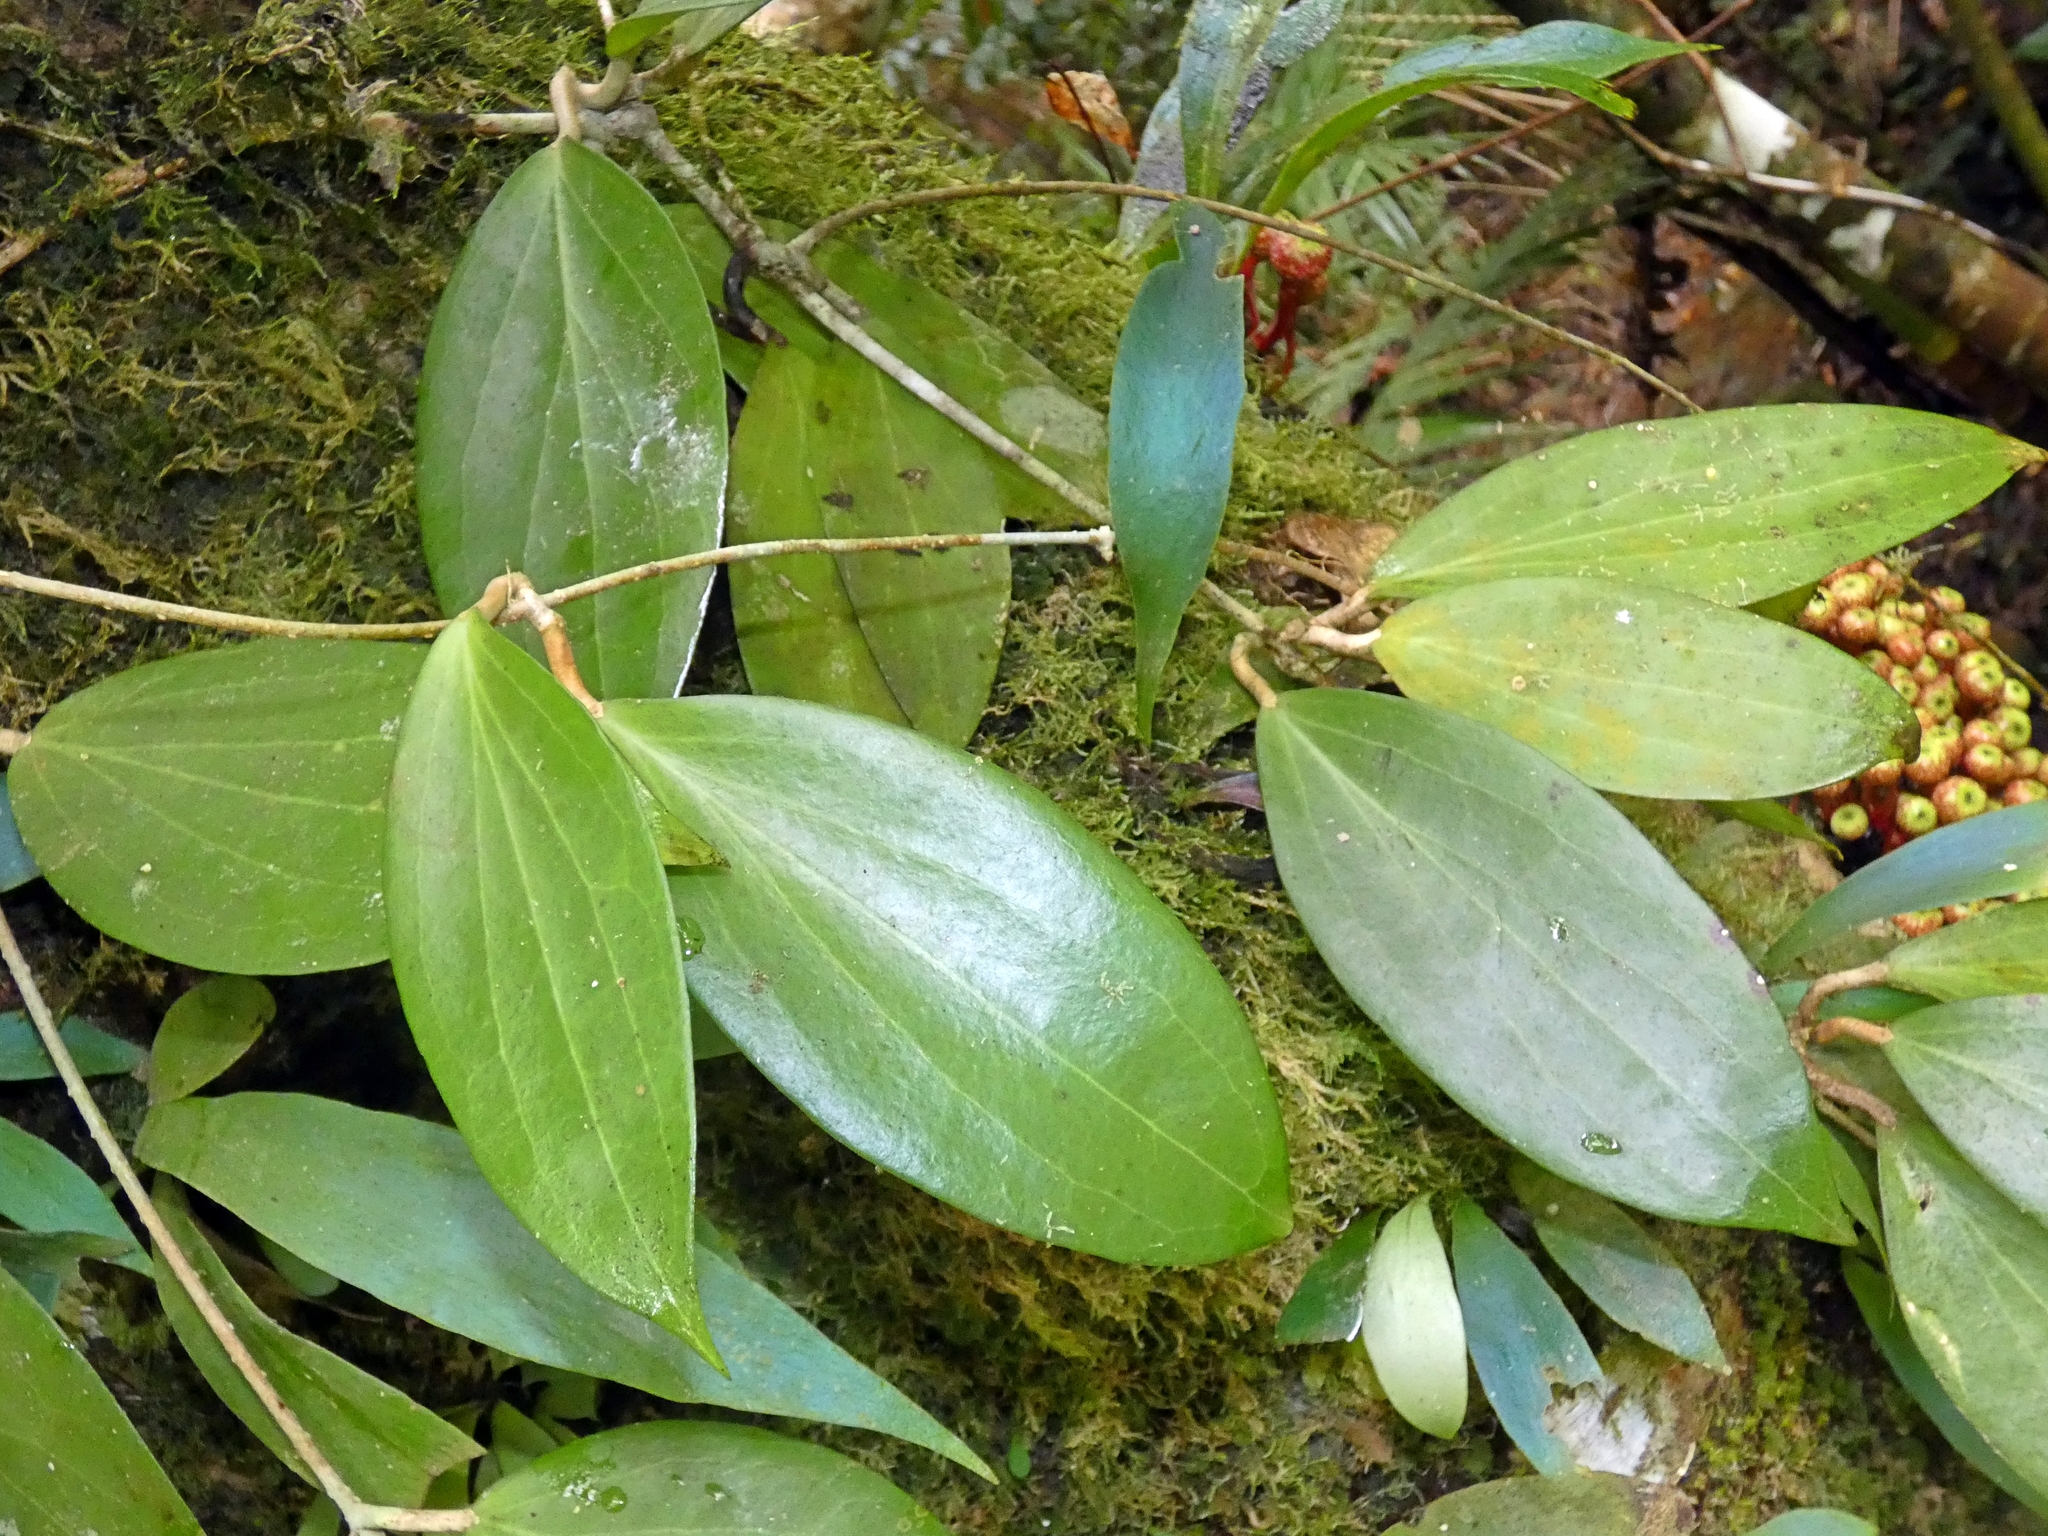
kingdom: Plantae
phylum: Tracheophyta
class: Magnoliopsida
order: Gentianales
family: Apocynaceae
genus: Hoya
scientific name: Hoya australis
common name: Wax flower
